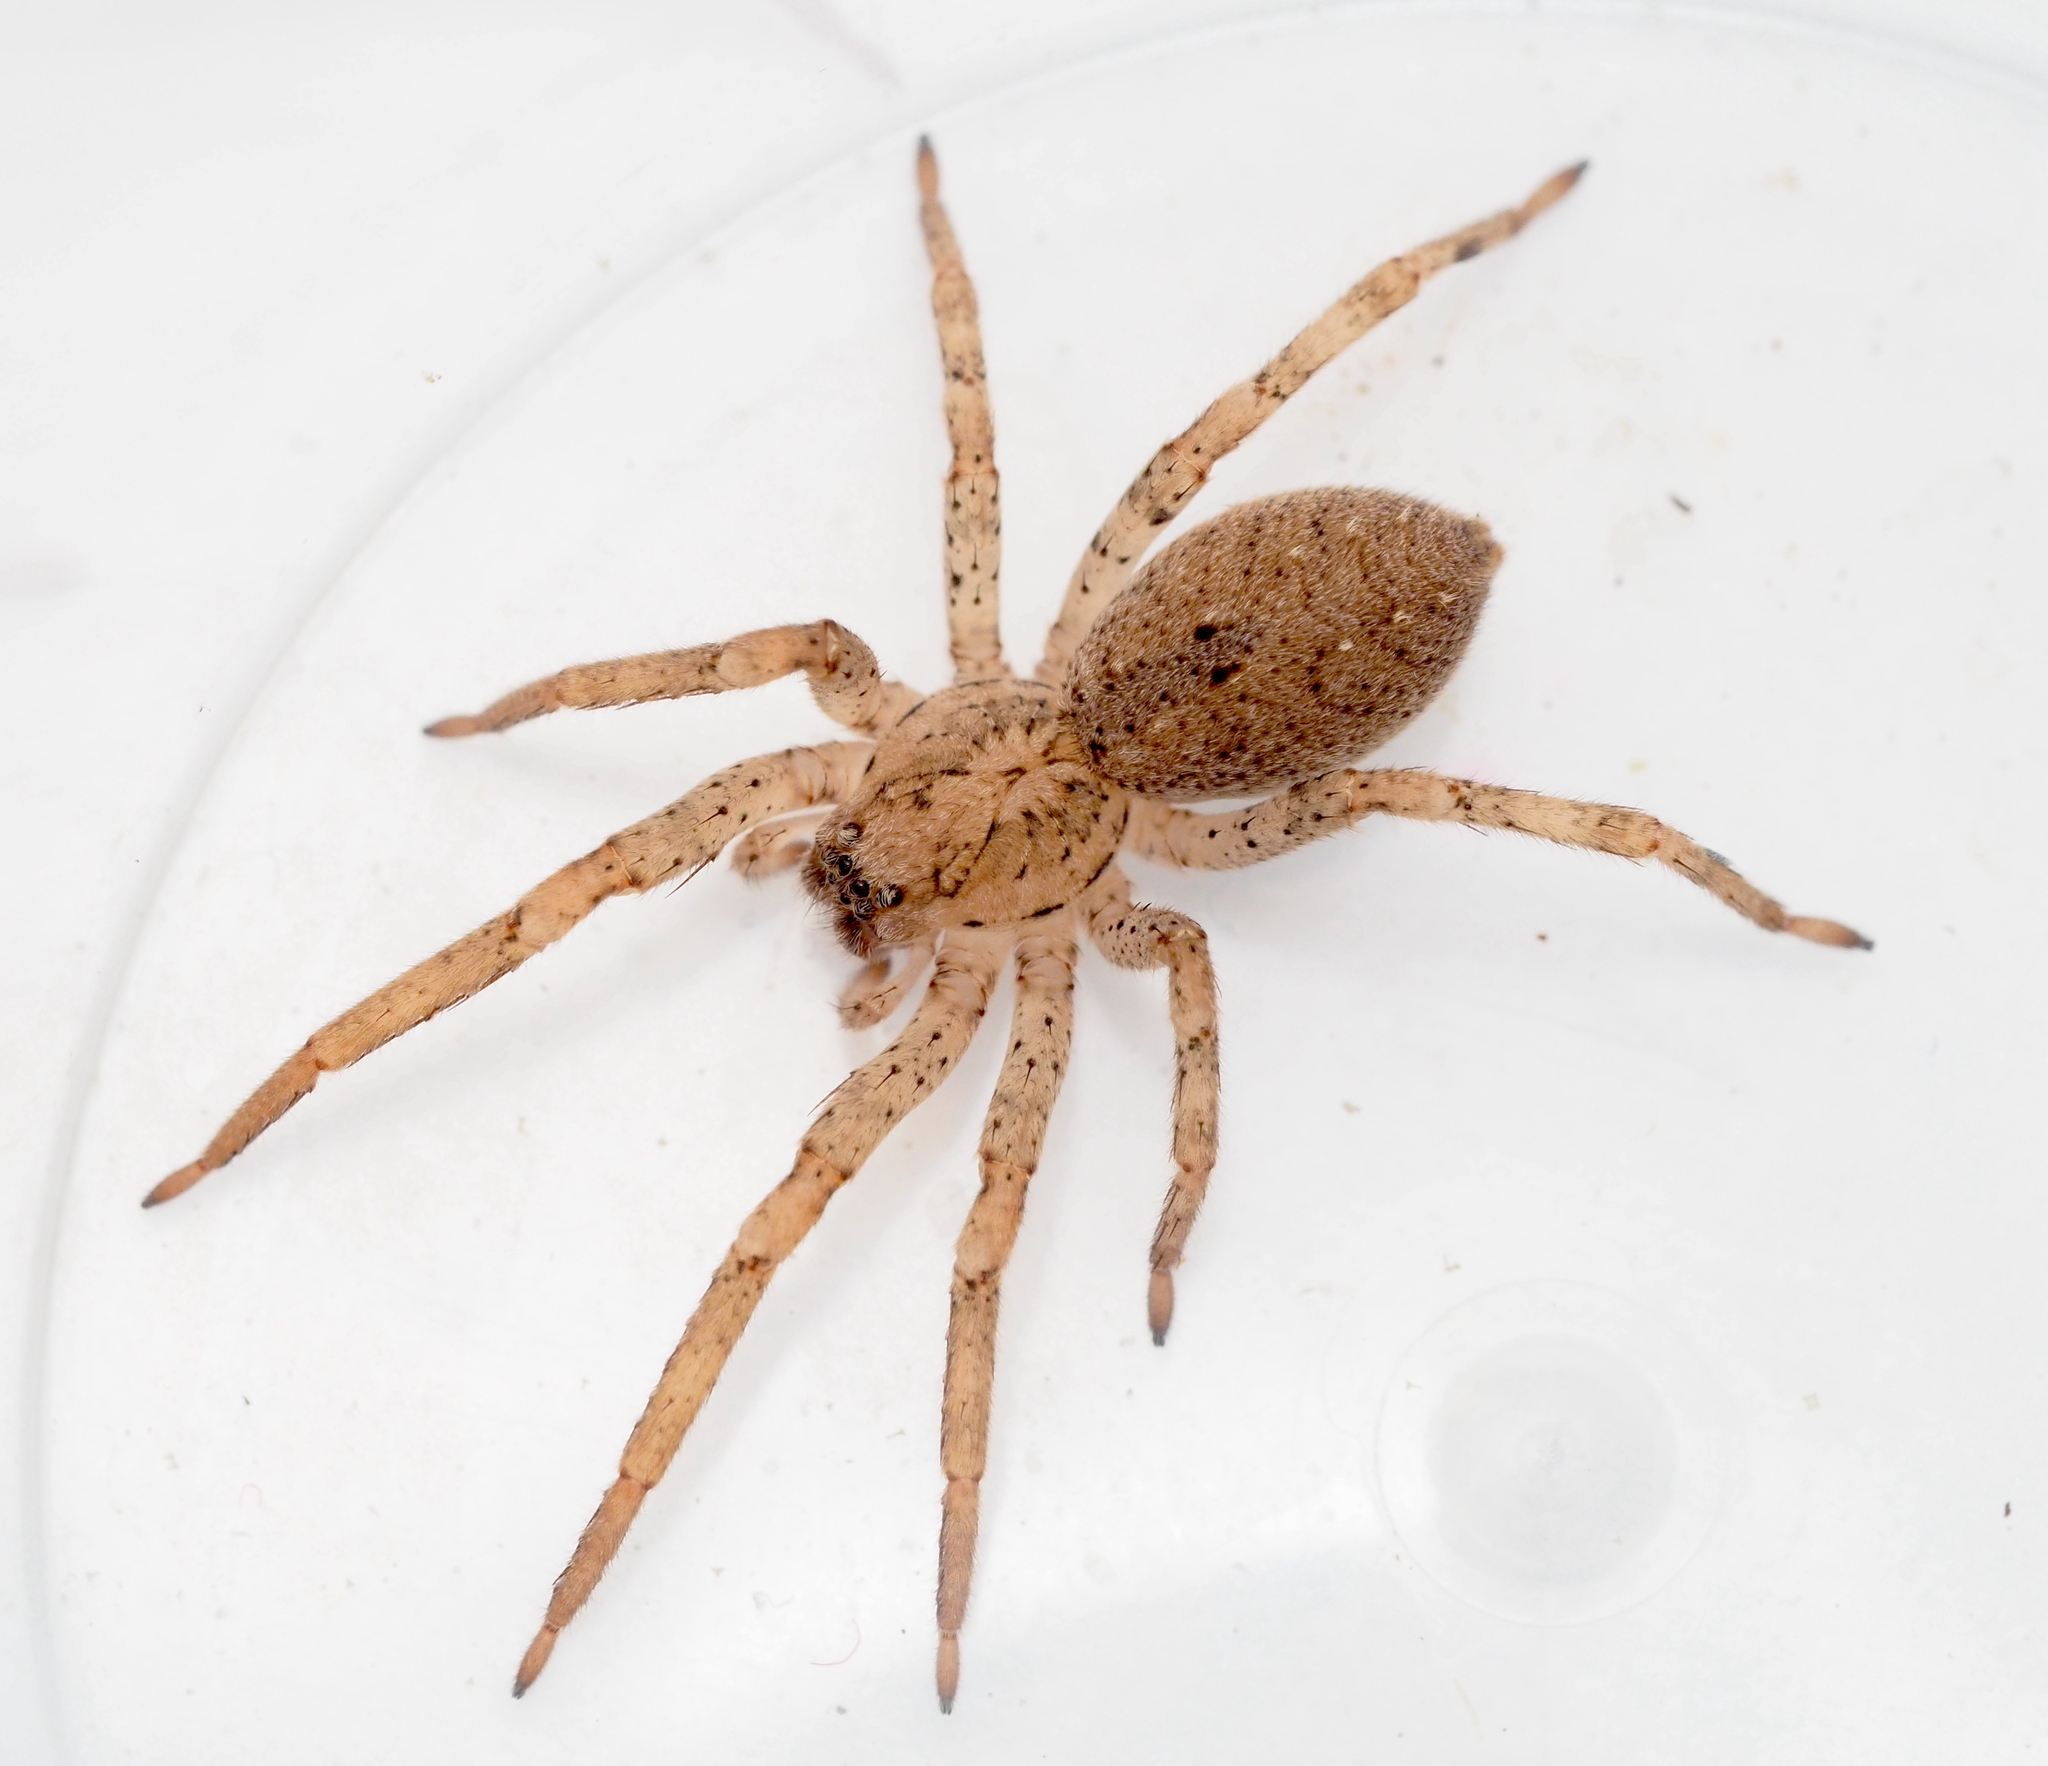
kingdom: Animalia
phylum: Arthropoda
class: Arachnida
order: Araneae
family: Zoropsidae
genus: Zoropsis
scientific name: Zoropsis spinimana
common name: Zoropsid spider
